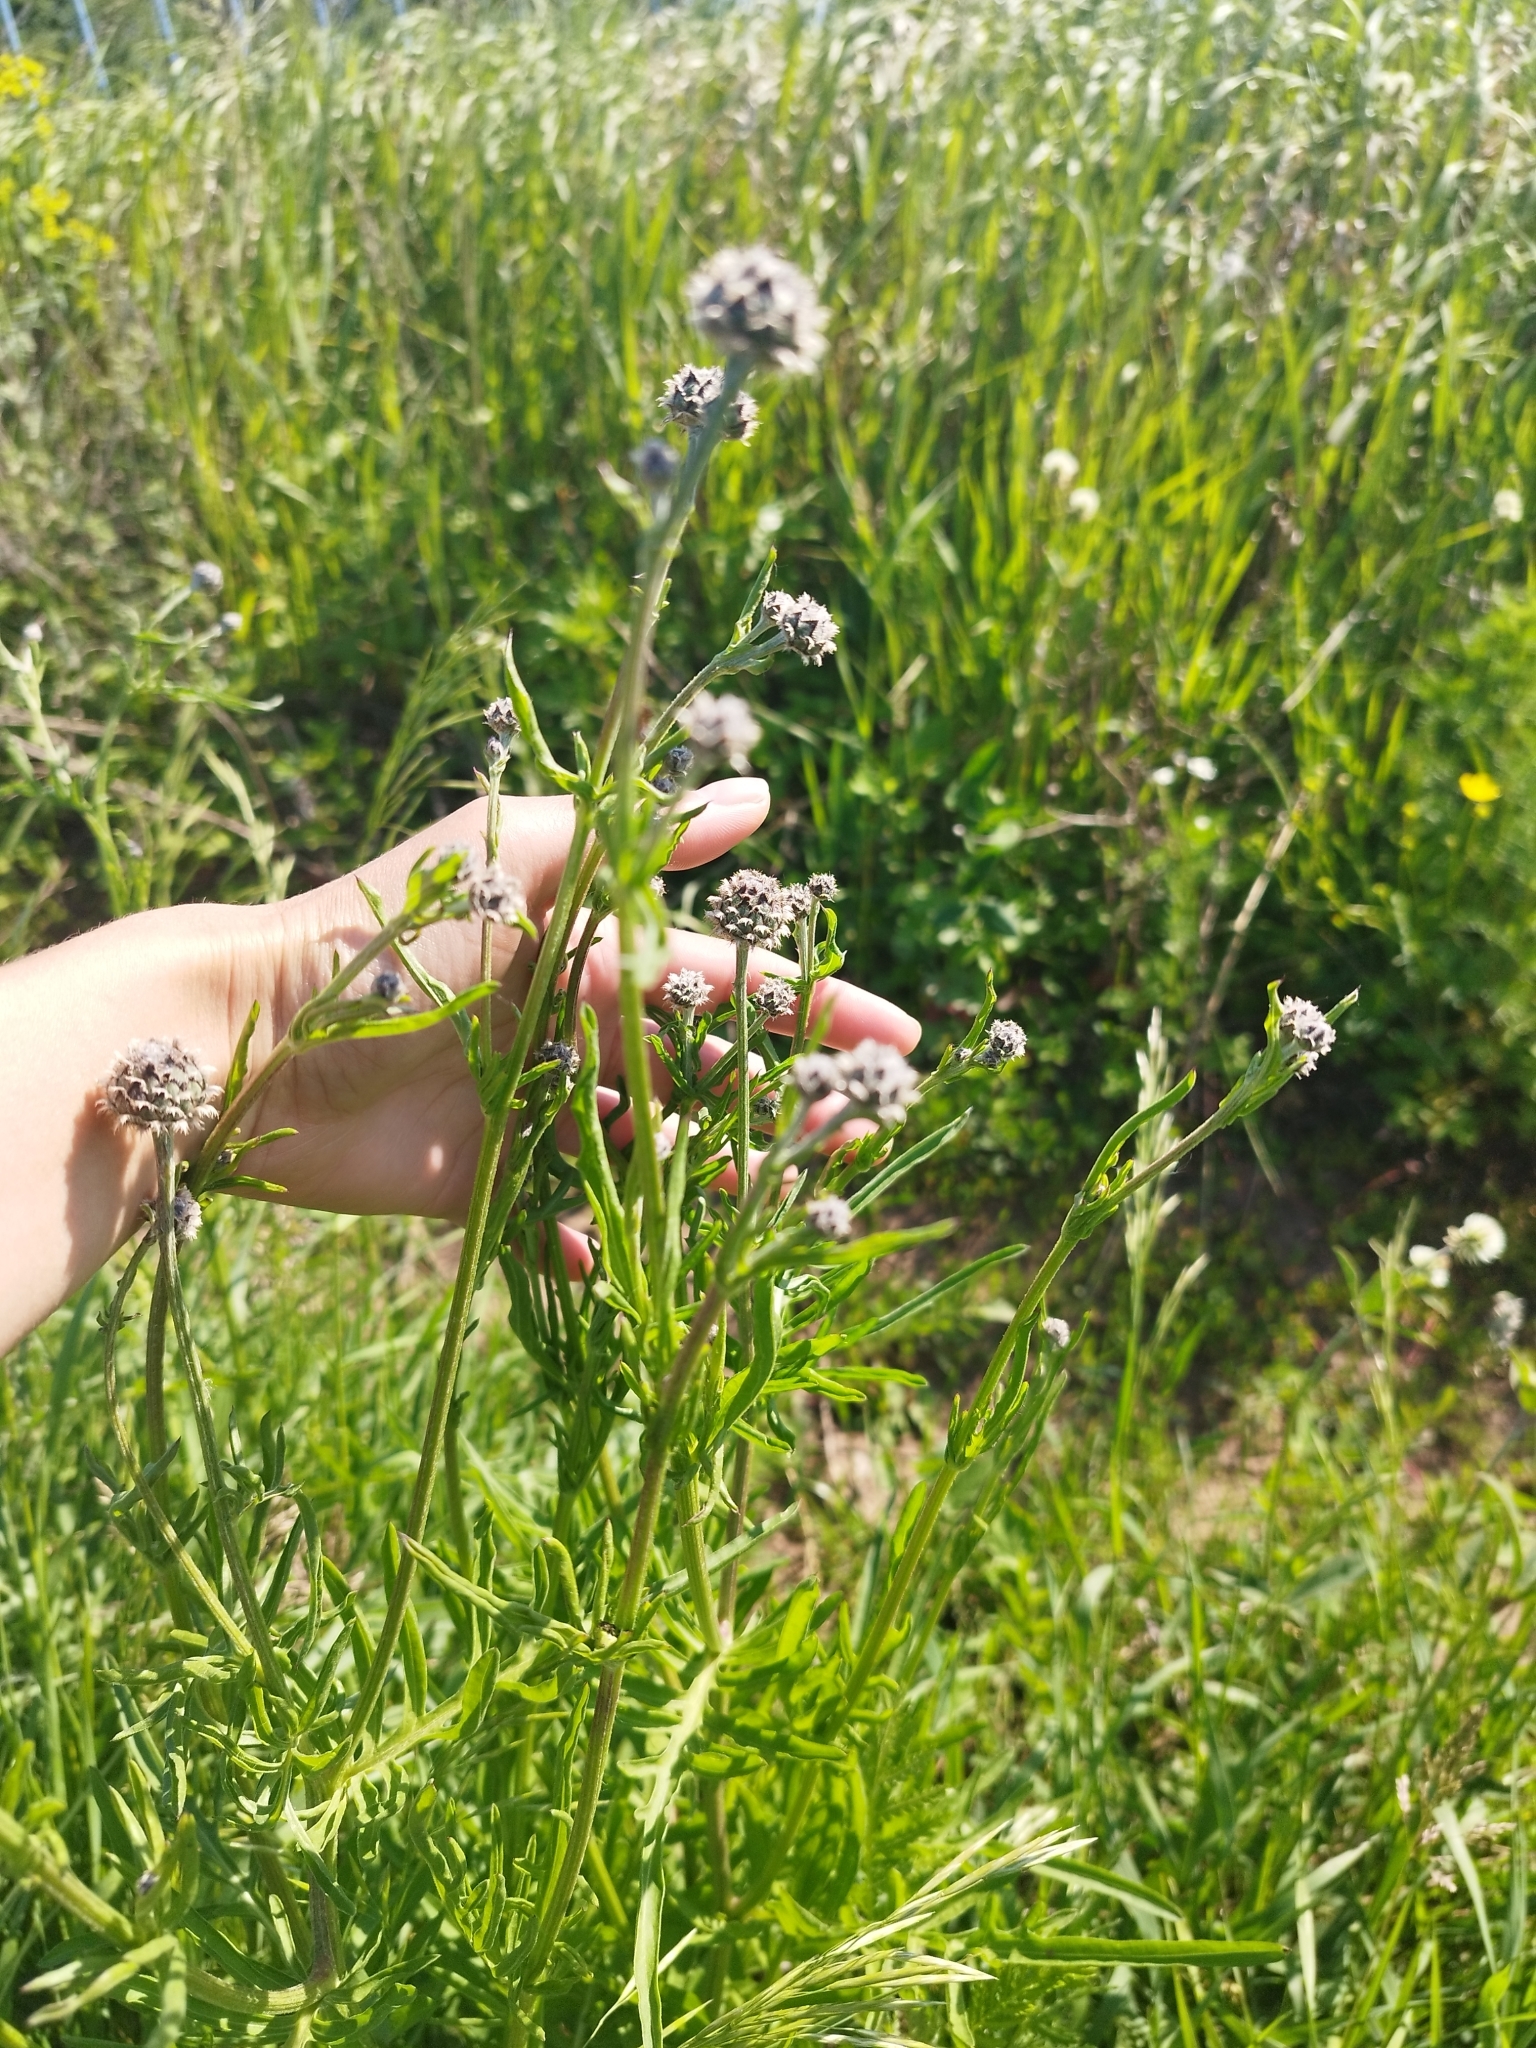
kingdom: Plantae
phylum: Tracheophyta
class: Magnoliopsida
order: Asterales
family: Asteraceae
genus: Centaurea
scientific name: Centaurea scabiosa
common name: Greater knapweed
